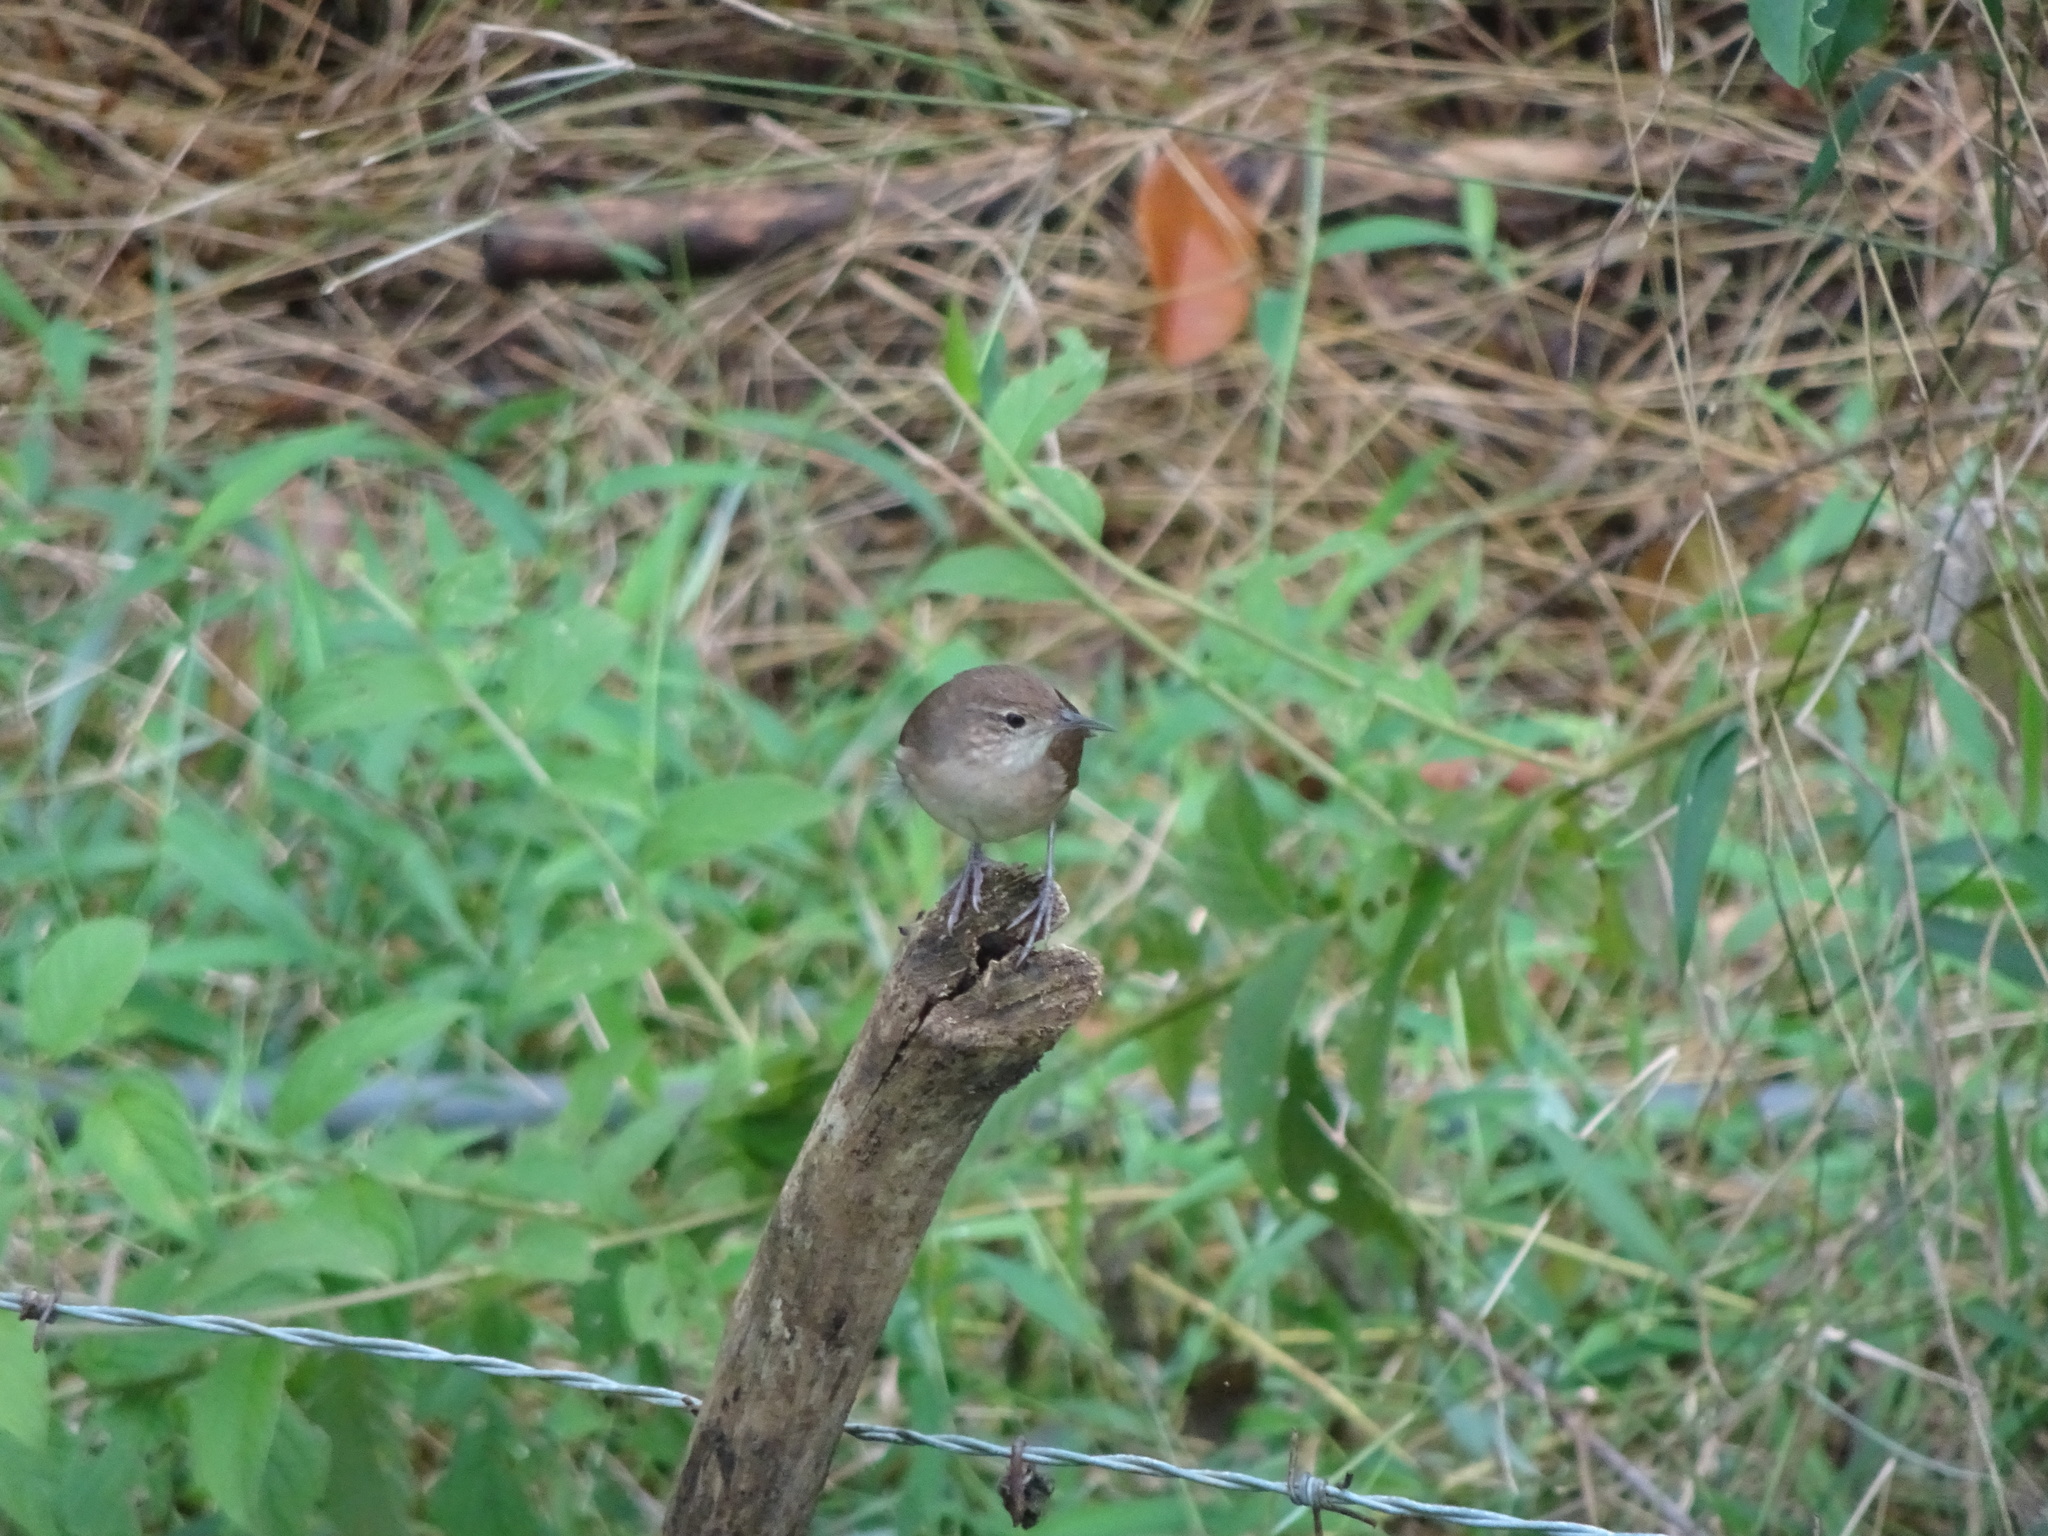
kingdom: Animalia
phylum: Chordata
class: Aves
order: Passeriformes
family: Troglodytidae
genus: Troglodytes
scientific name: Troglodytes aedon
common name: House wren
